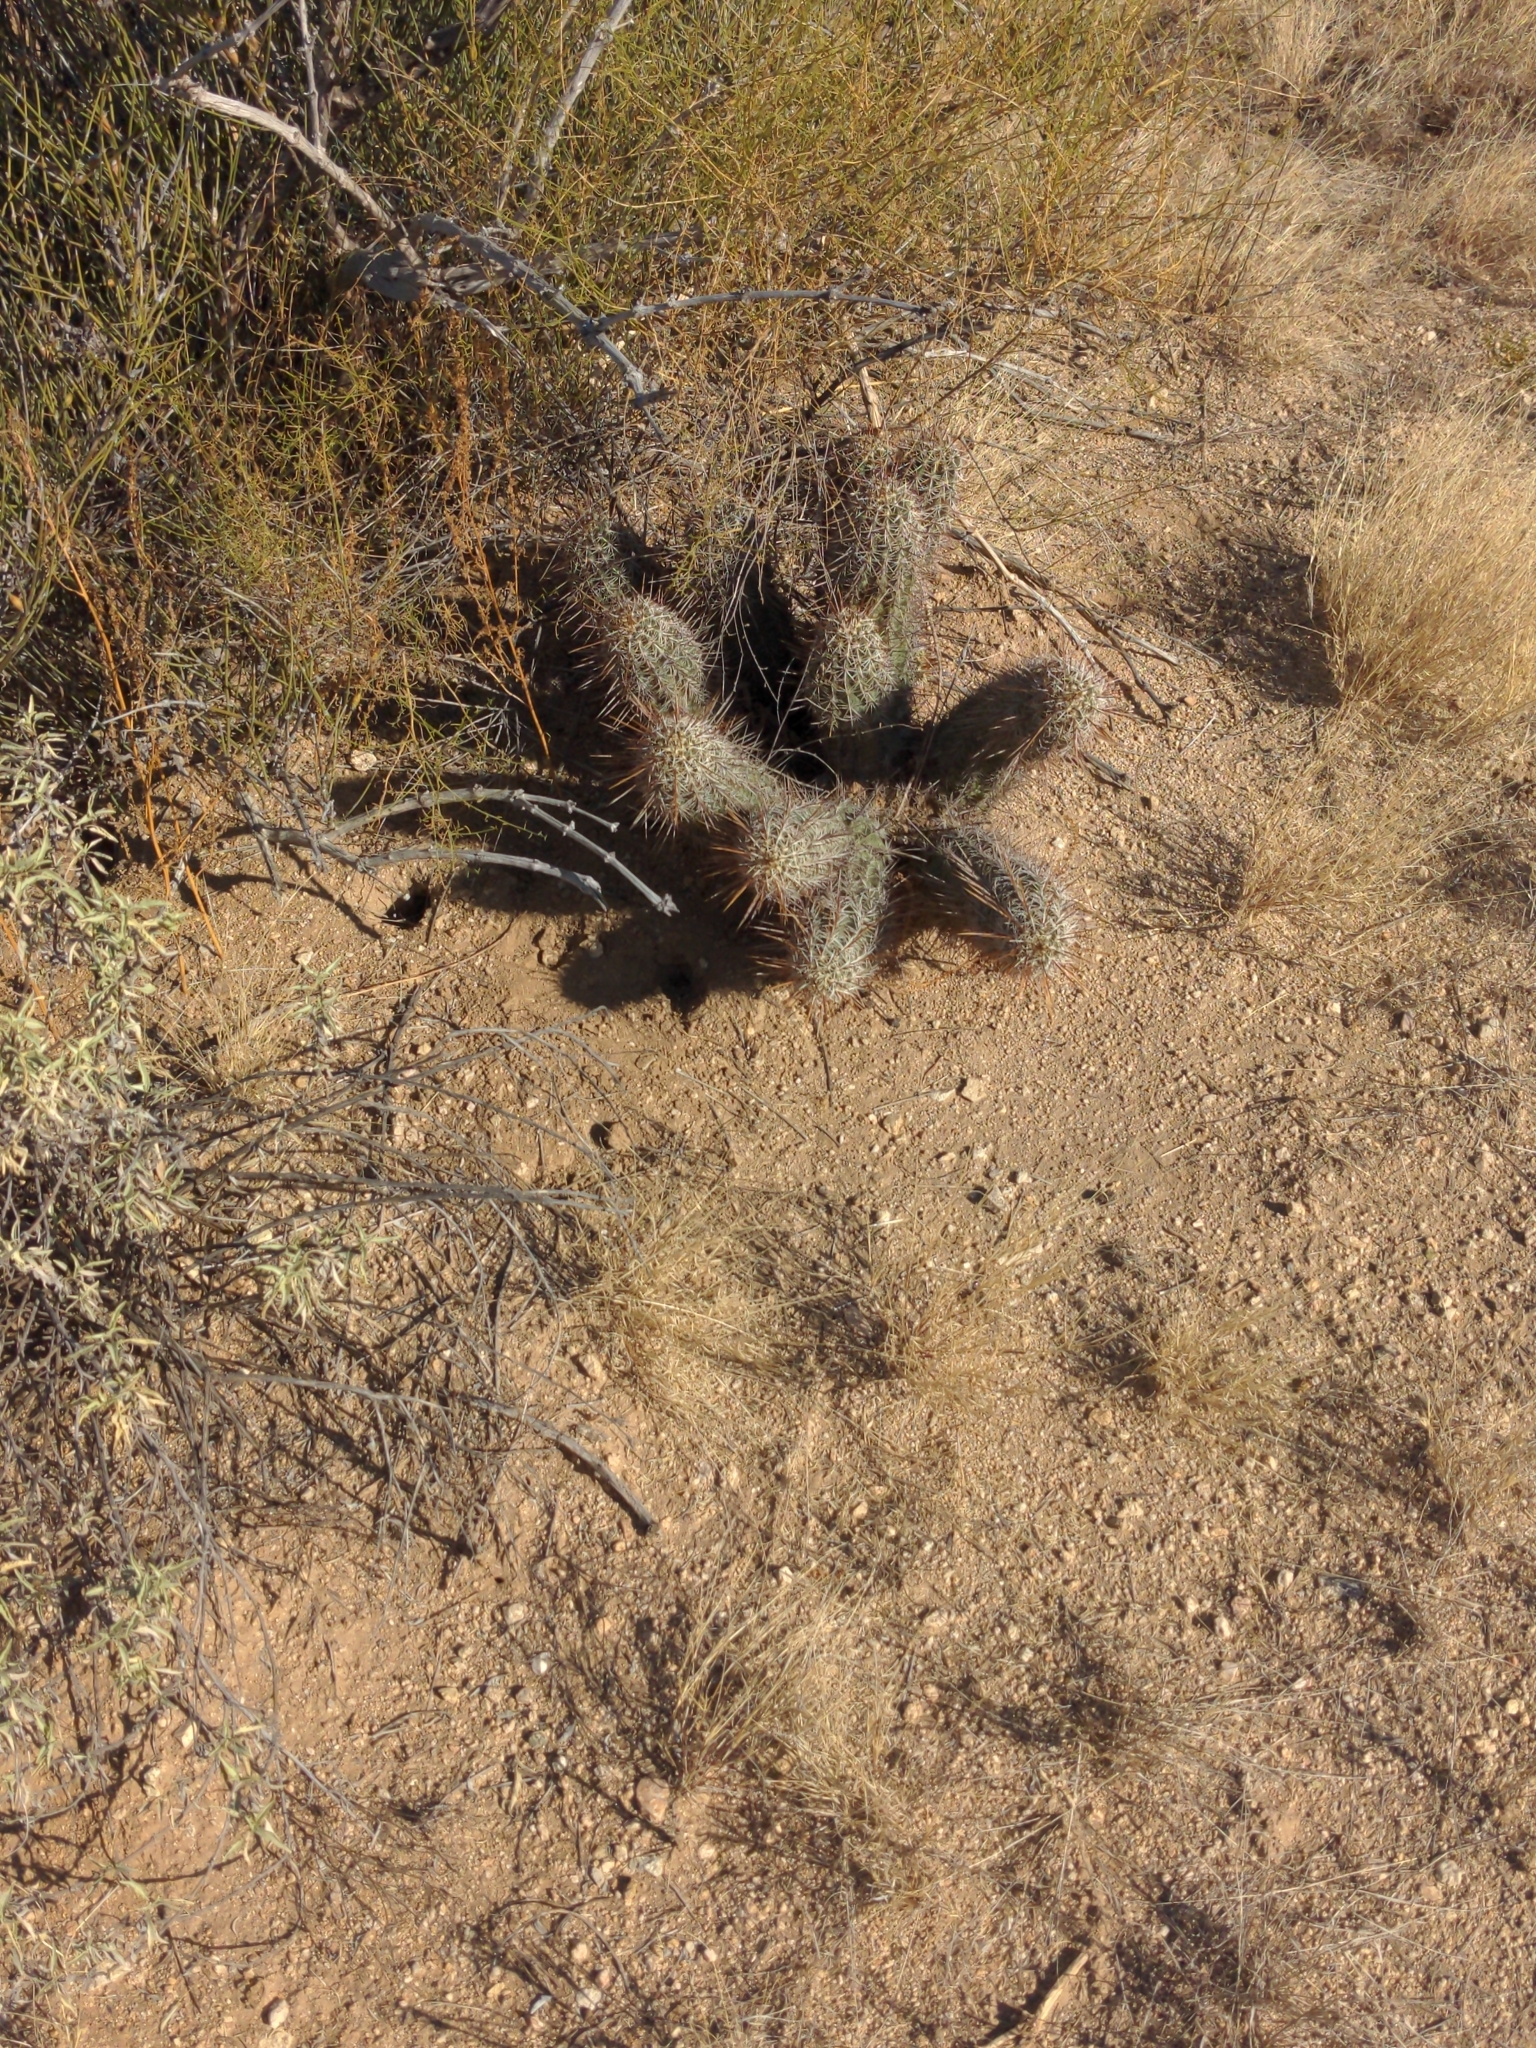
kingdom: Plantae
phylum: Tracheophyta
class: Magnoliopsida
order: Caryophyllales
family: Cactaceae
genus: Echinocereus
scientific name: Echinocereus engelmannii
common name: Engelmann's hedgehog cactus
